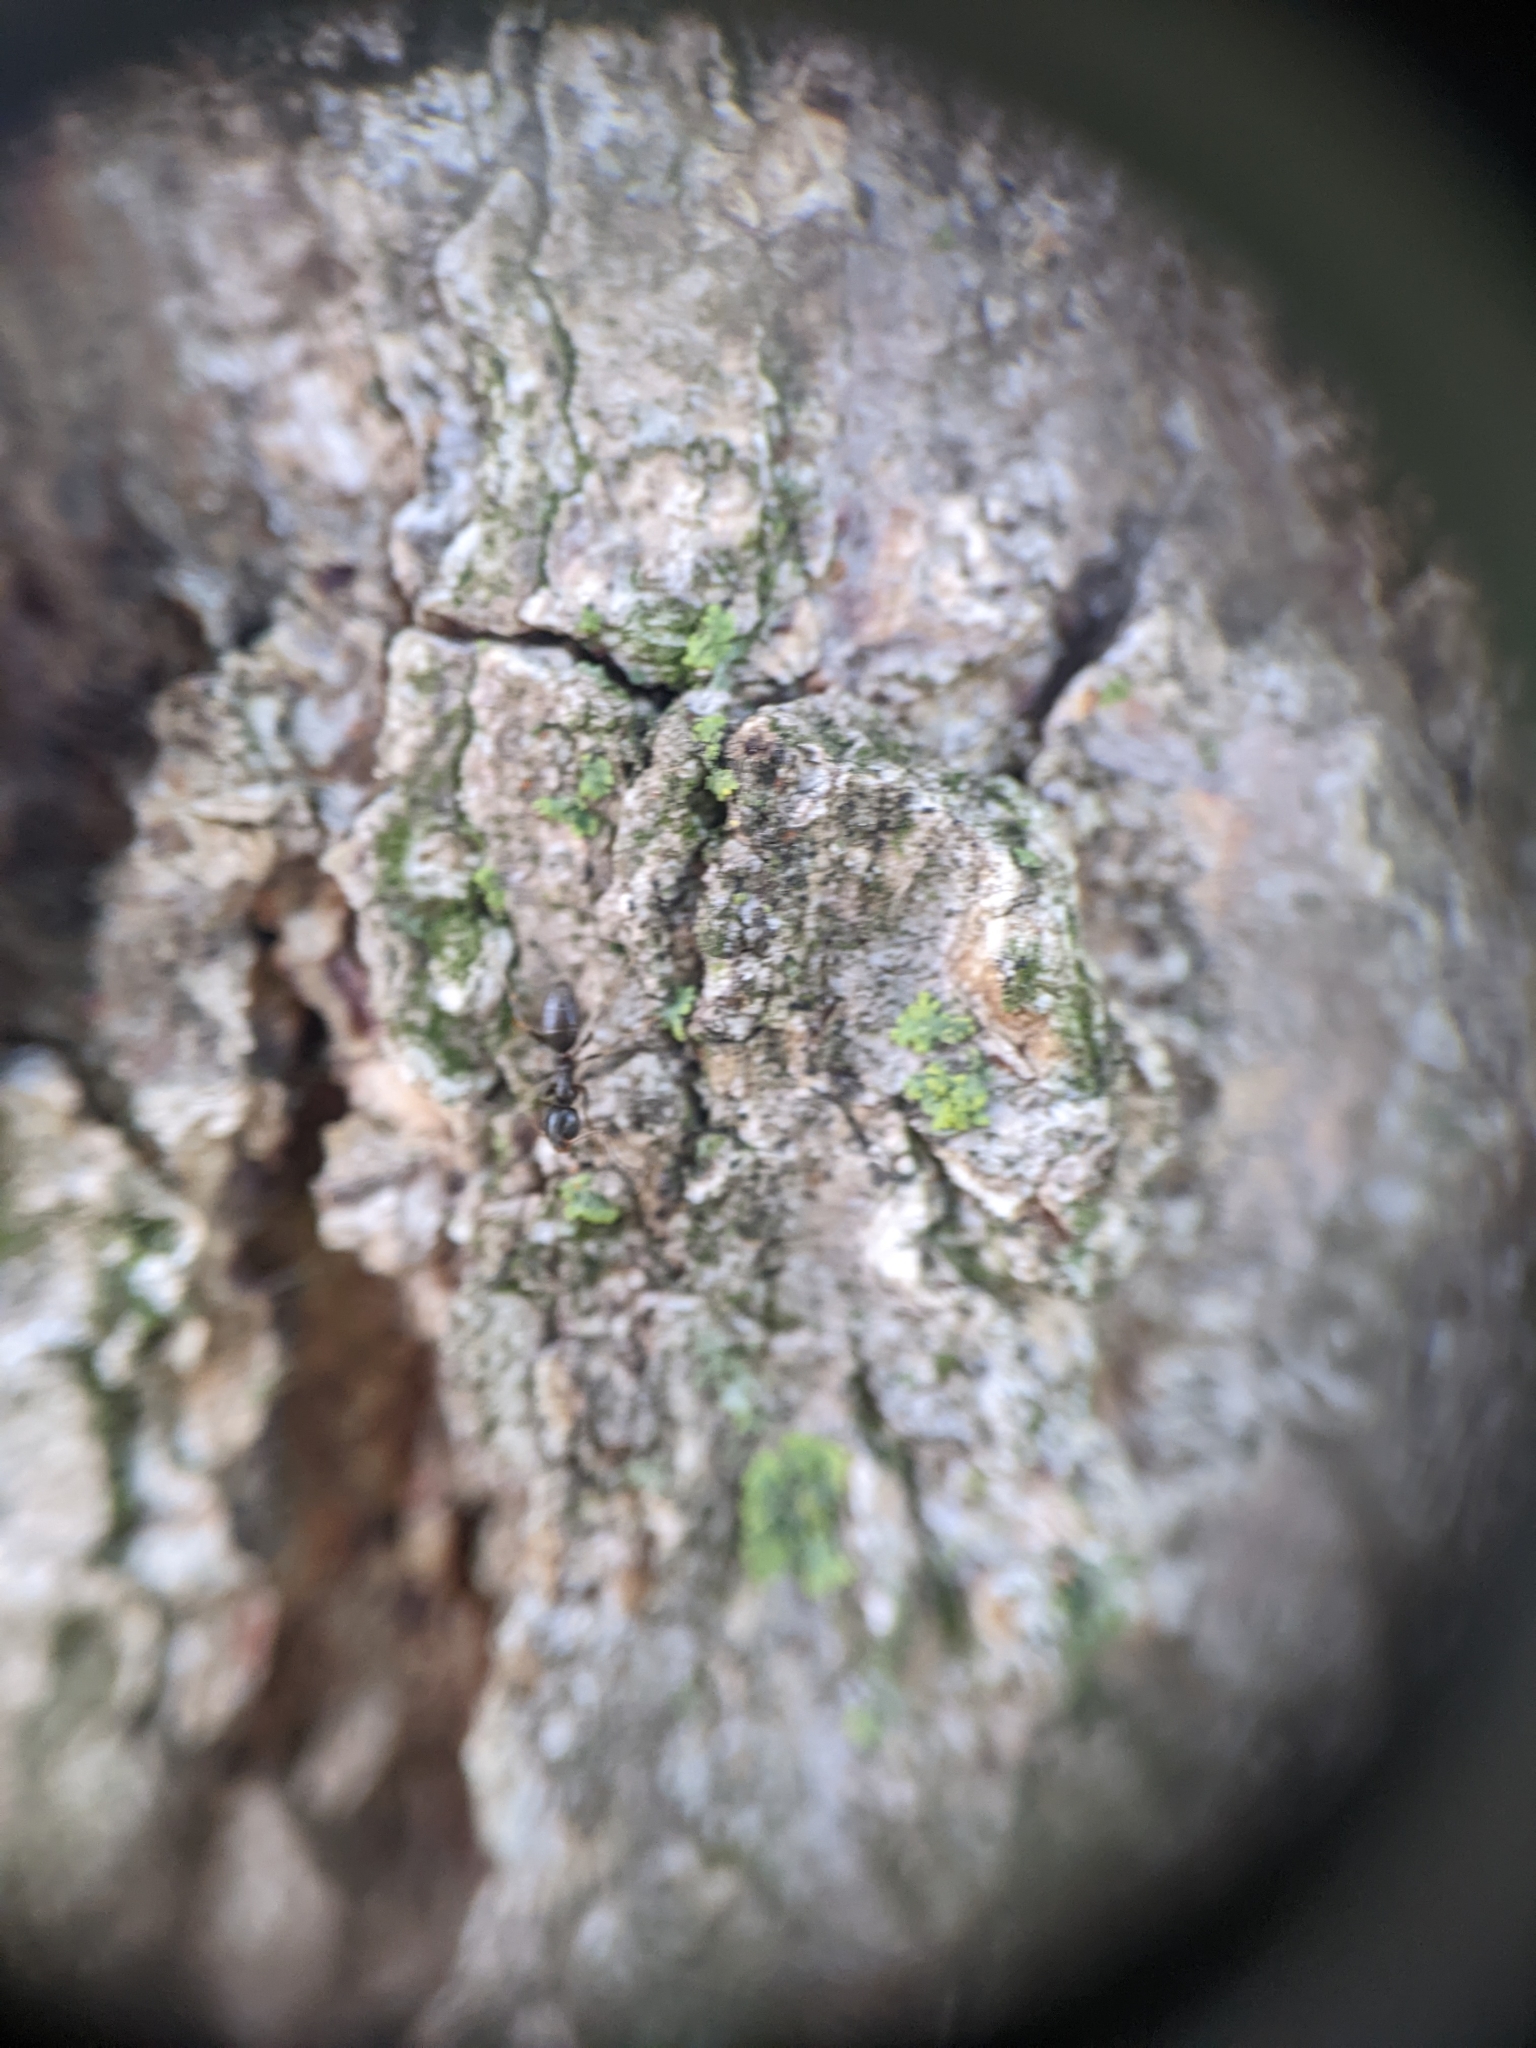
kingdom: Animalia
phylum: Arthropoda
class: Insecta
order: Hymenoptera
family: Formicidae
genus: Tapinoma
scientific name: Tapinoma sessile
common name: Odorous house ant
